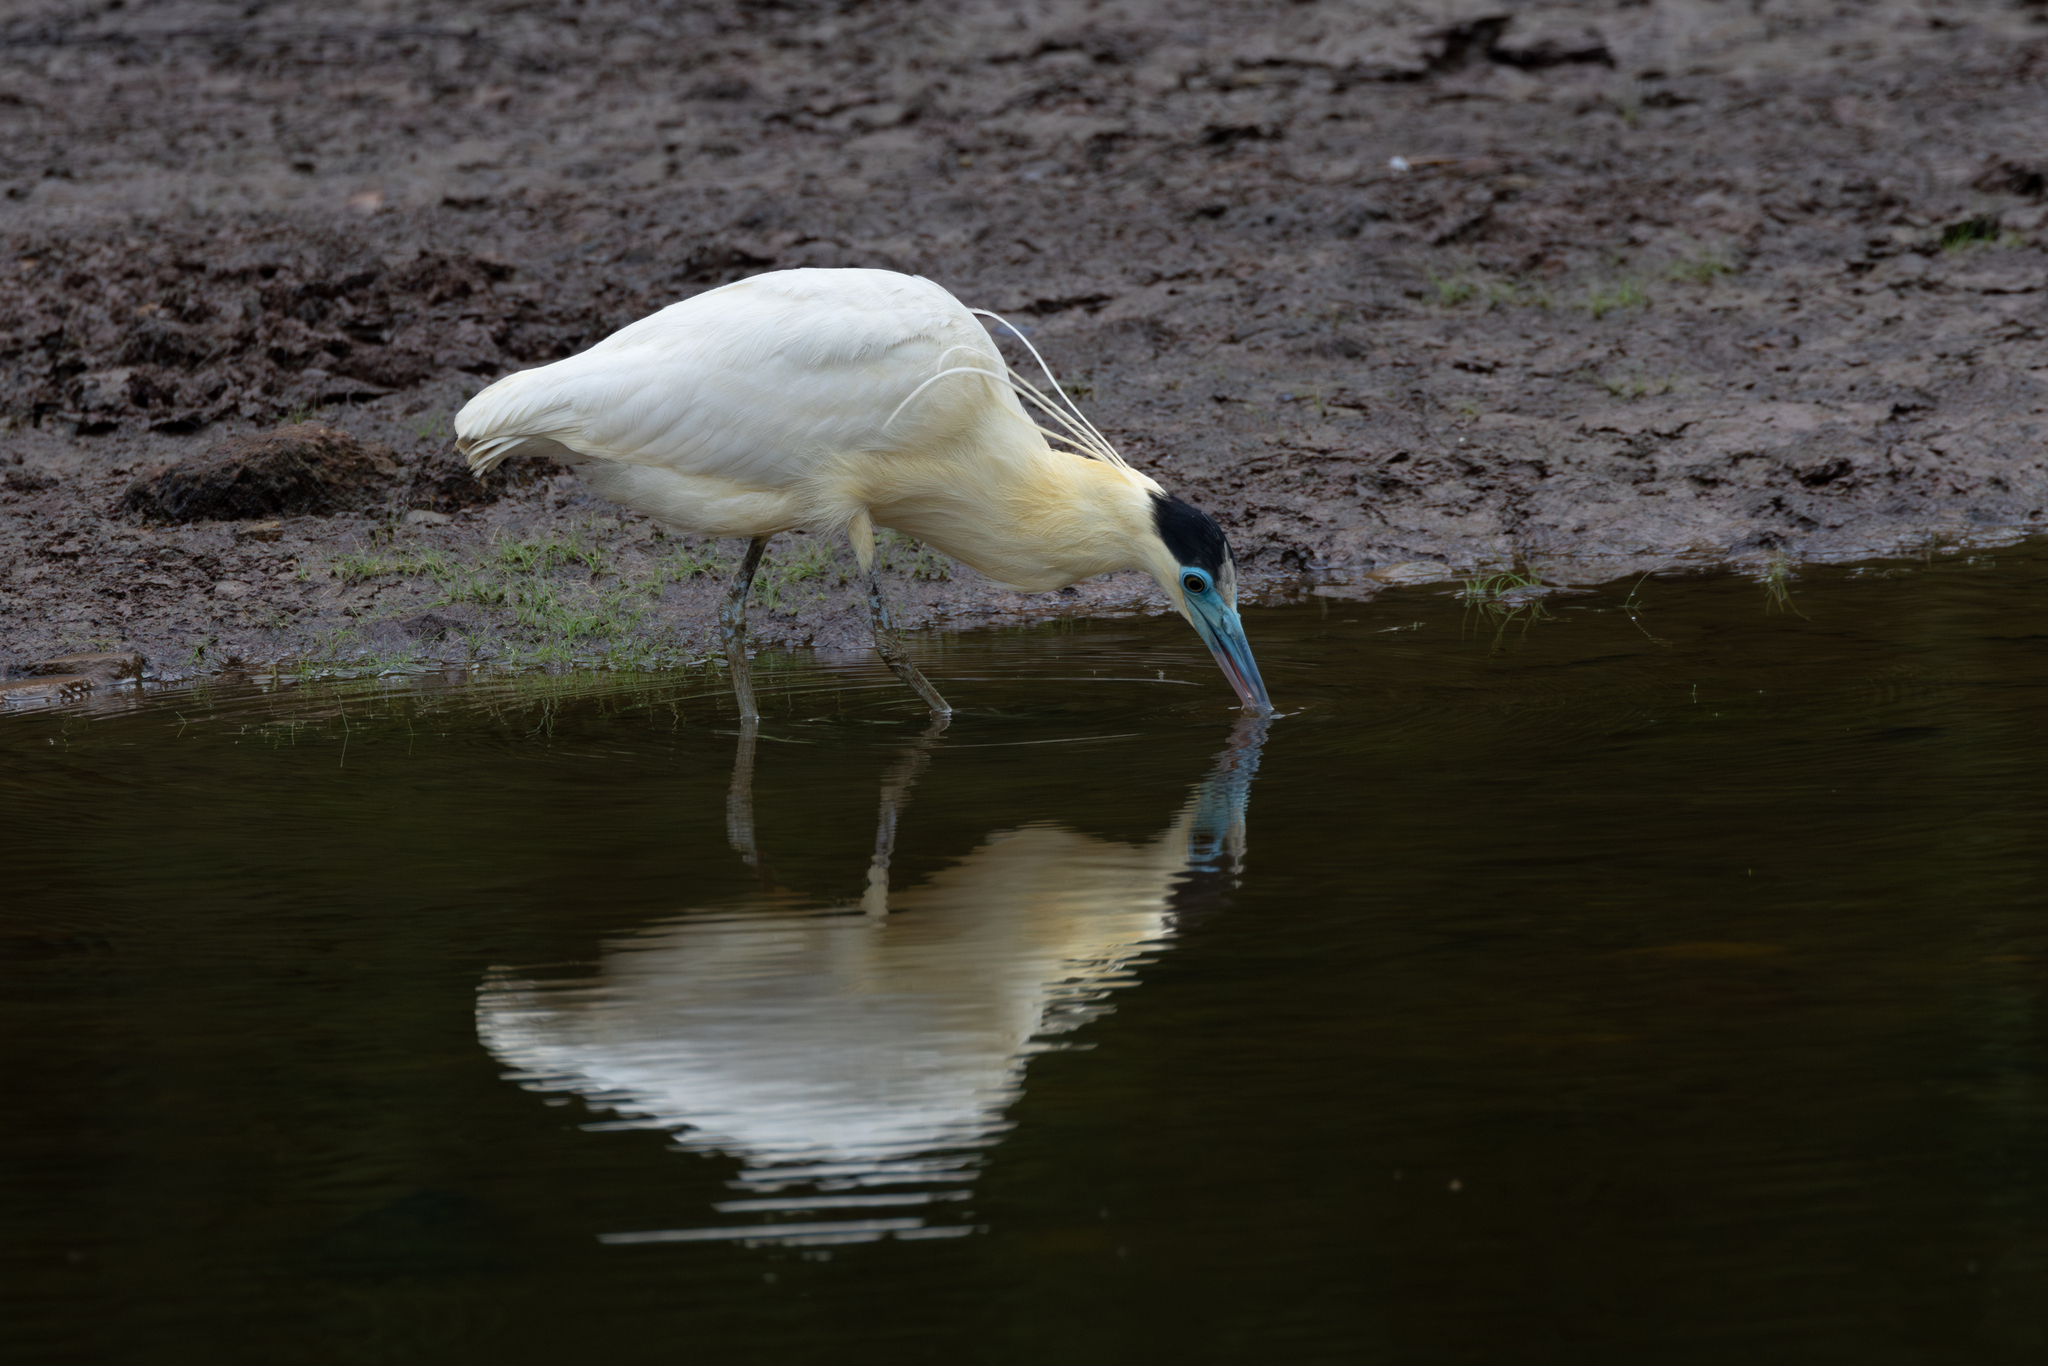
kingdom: Animalia
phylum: Chordata
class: Aves
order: Pelecaniformes
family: Ardeidae
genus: Pilherodius
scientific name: Pilherodius pileatus
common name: Capped heron
